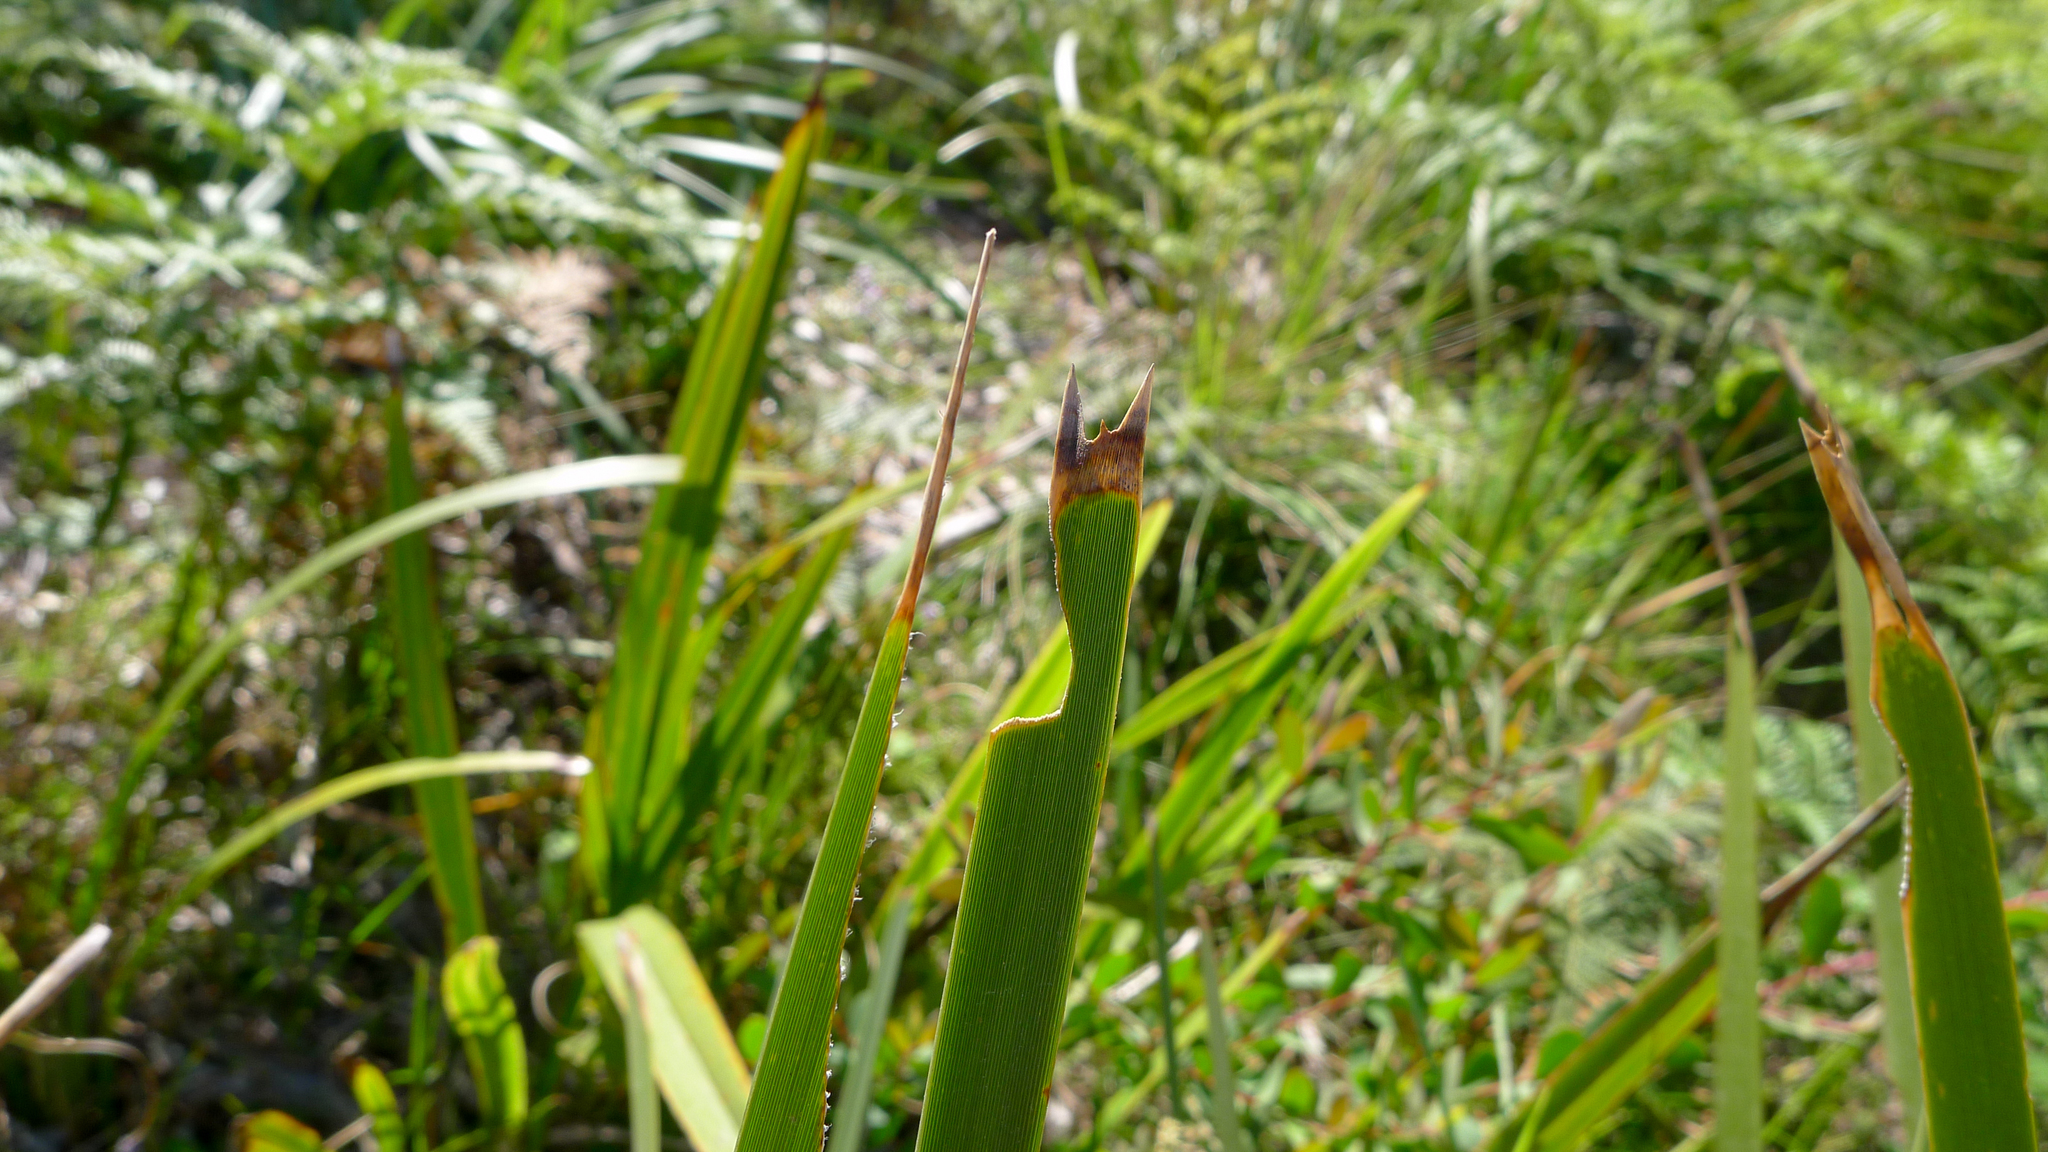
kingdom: Plantae
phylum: Tracheophyta
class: Liliopsida
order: Asparagales
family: Asparagaceae
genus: Lomandra
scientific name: Lomandra longifolia
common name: Longleaf mat-rush
